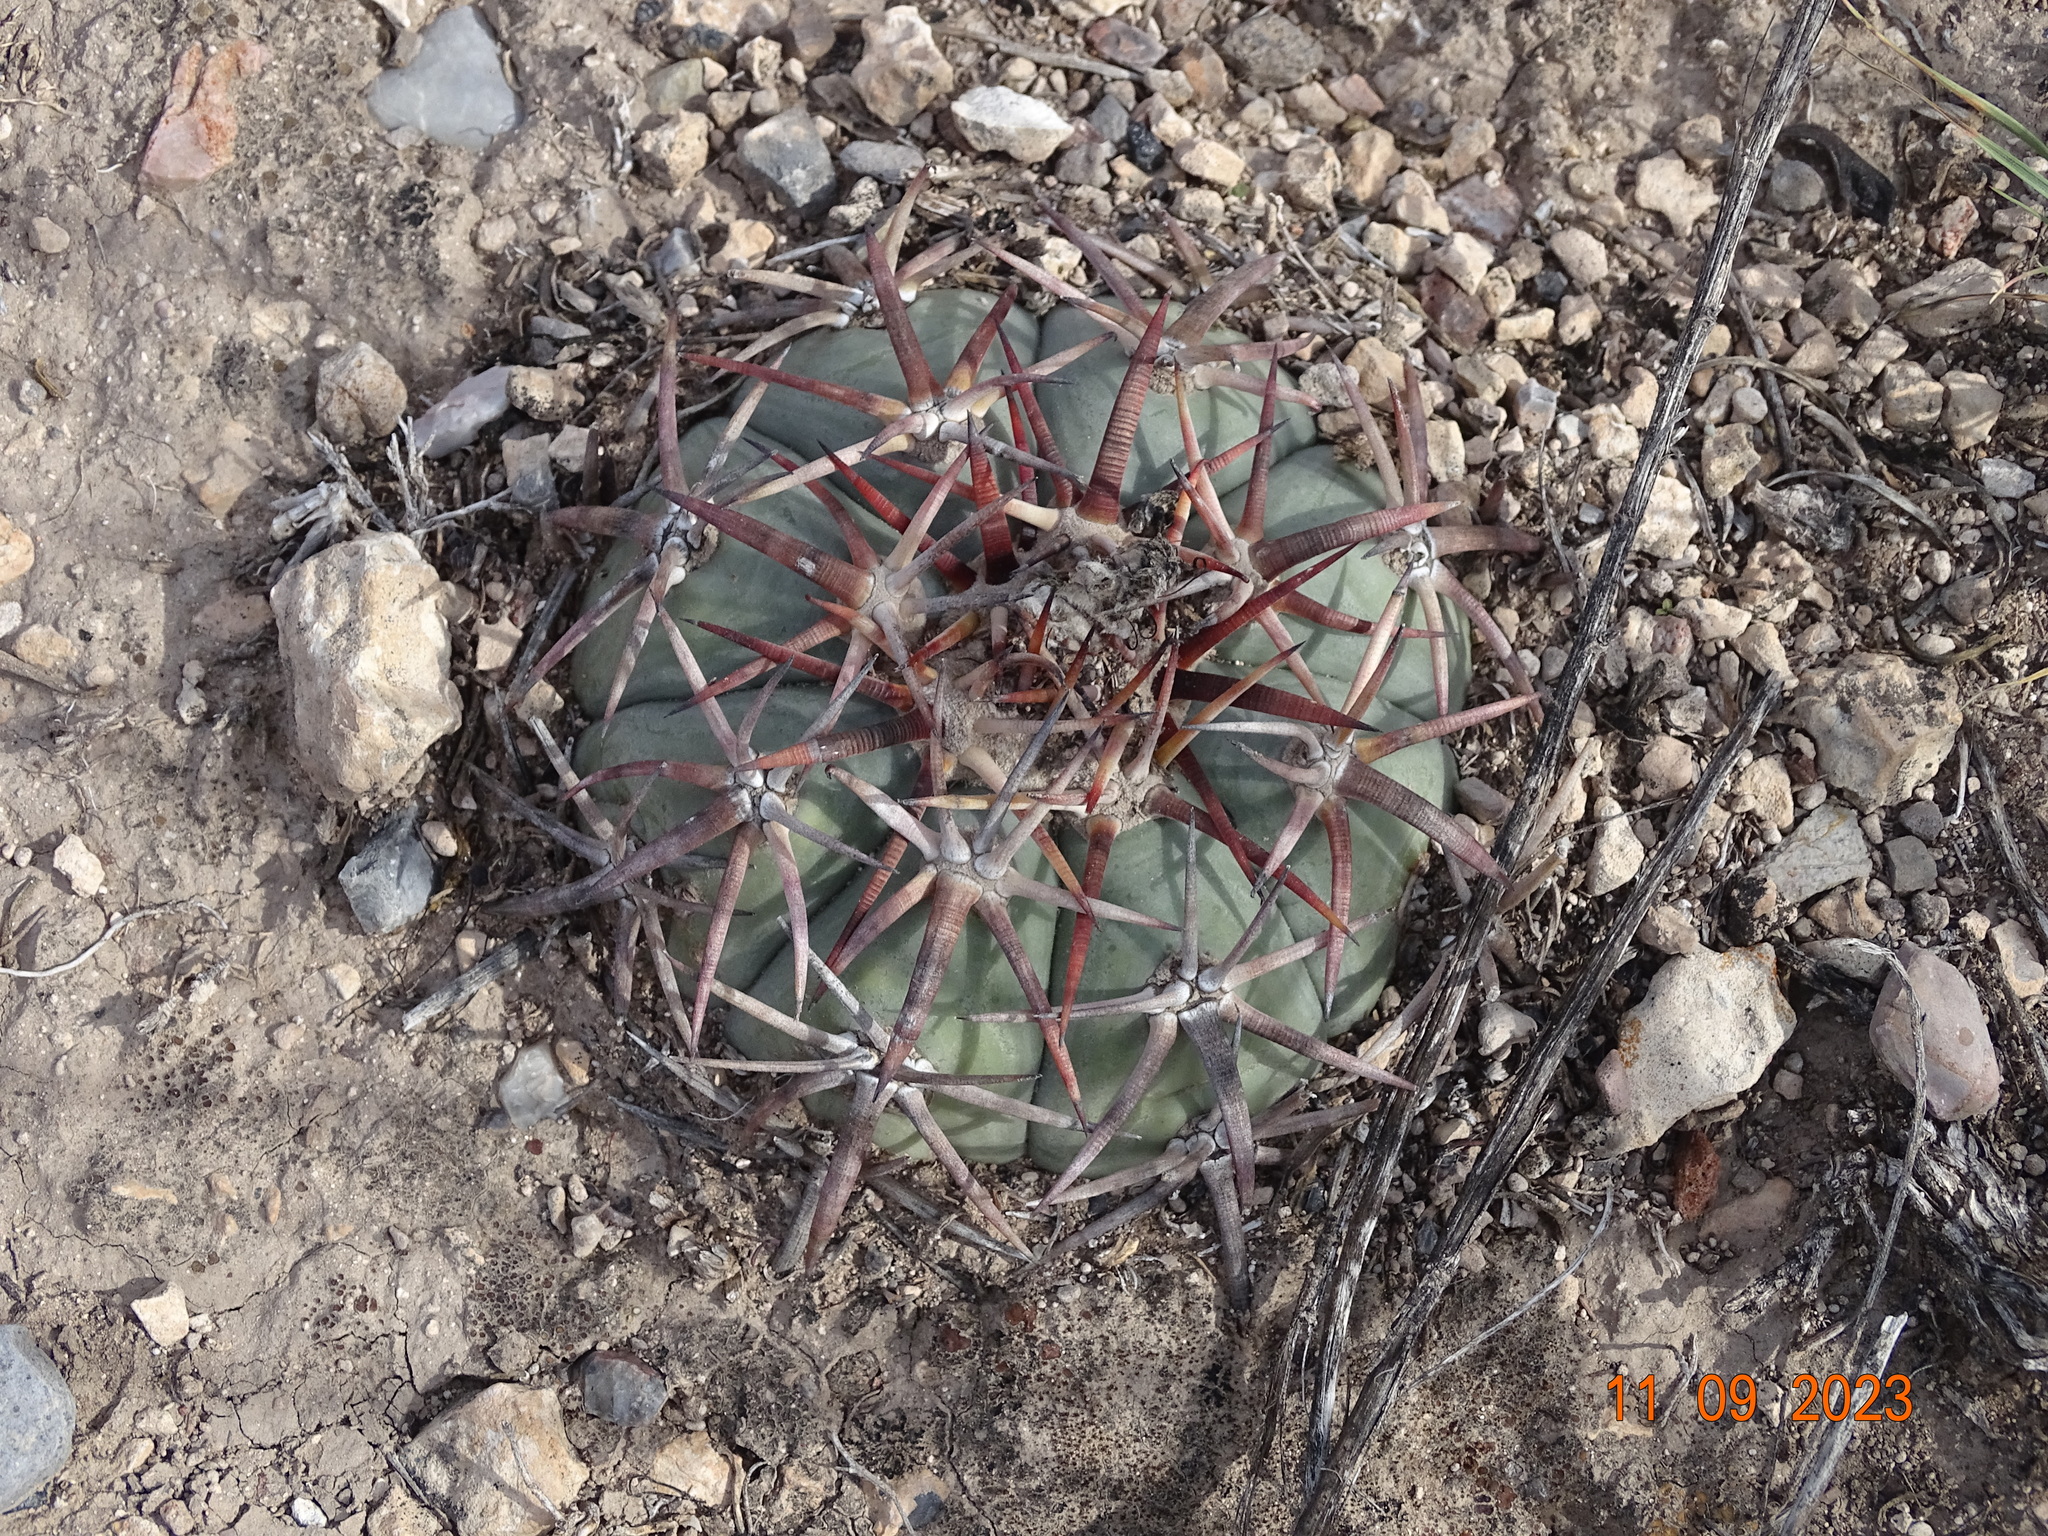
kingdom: Plantae
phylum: Tracheophyta
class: Magnoliopsida
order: Caryophyllales
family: Cactaceae
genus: Echinocactus
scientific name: Echinocactus horizonthalonius
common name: Devilshead
